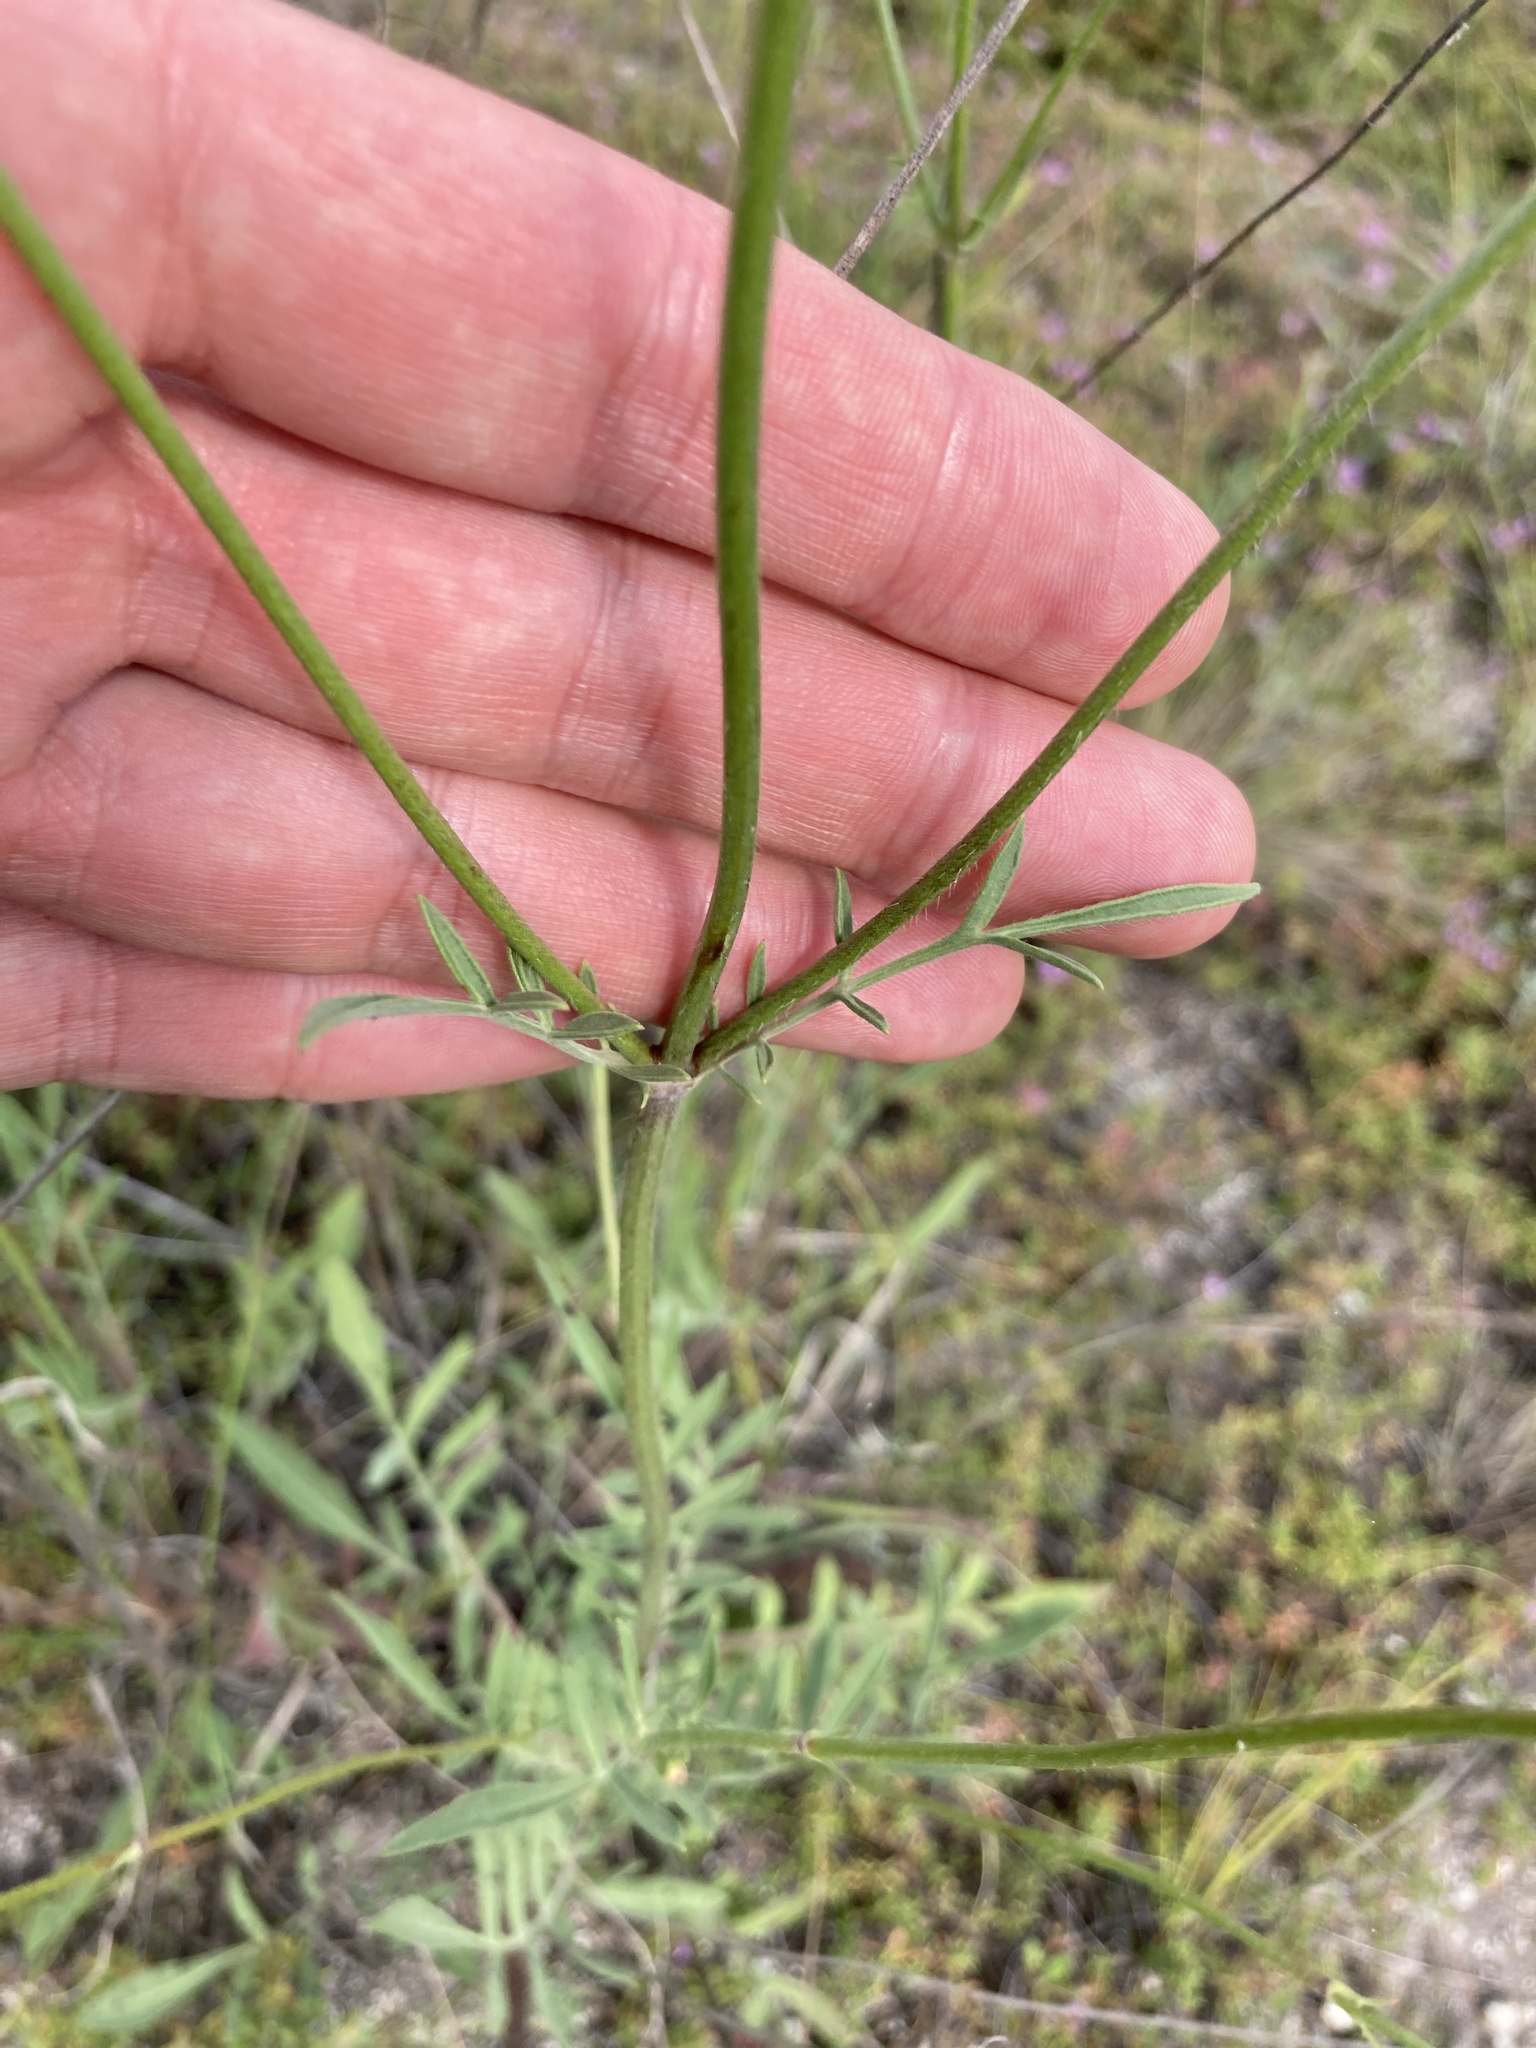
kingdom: Plantae
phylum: Tracheophyta
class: Magnoliopsida
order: Dipsacales
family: Caprifoliaceae
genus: Cephalaria
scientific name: Cephalaria uralensis
